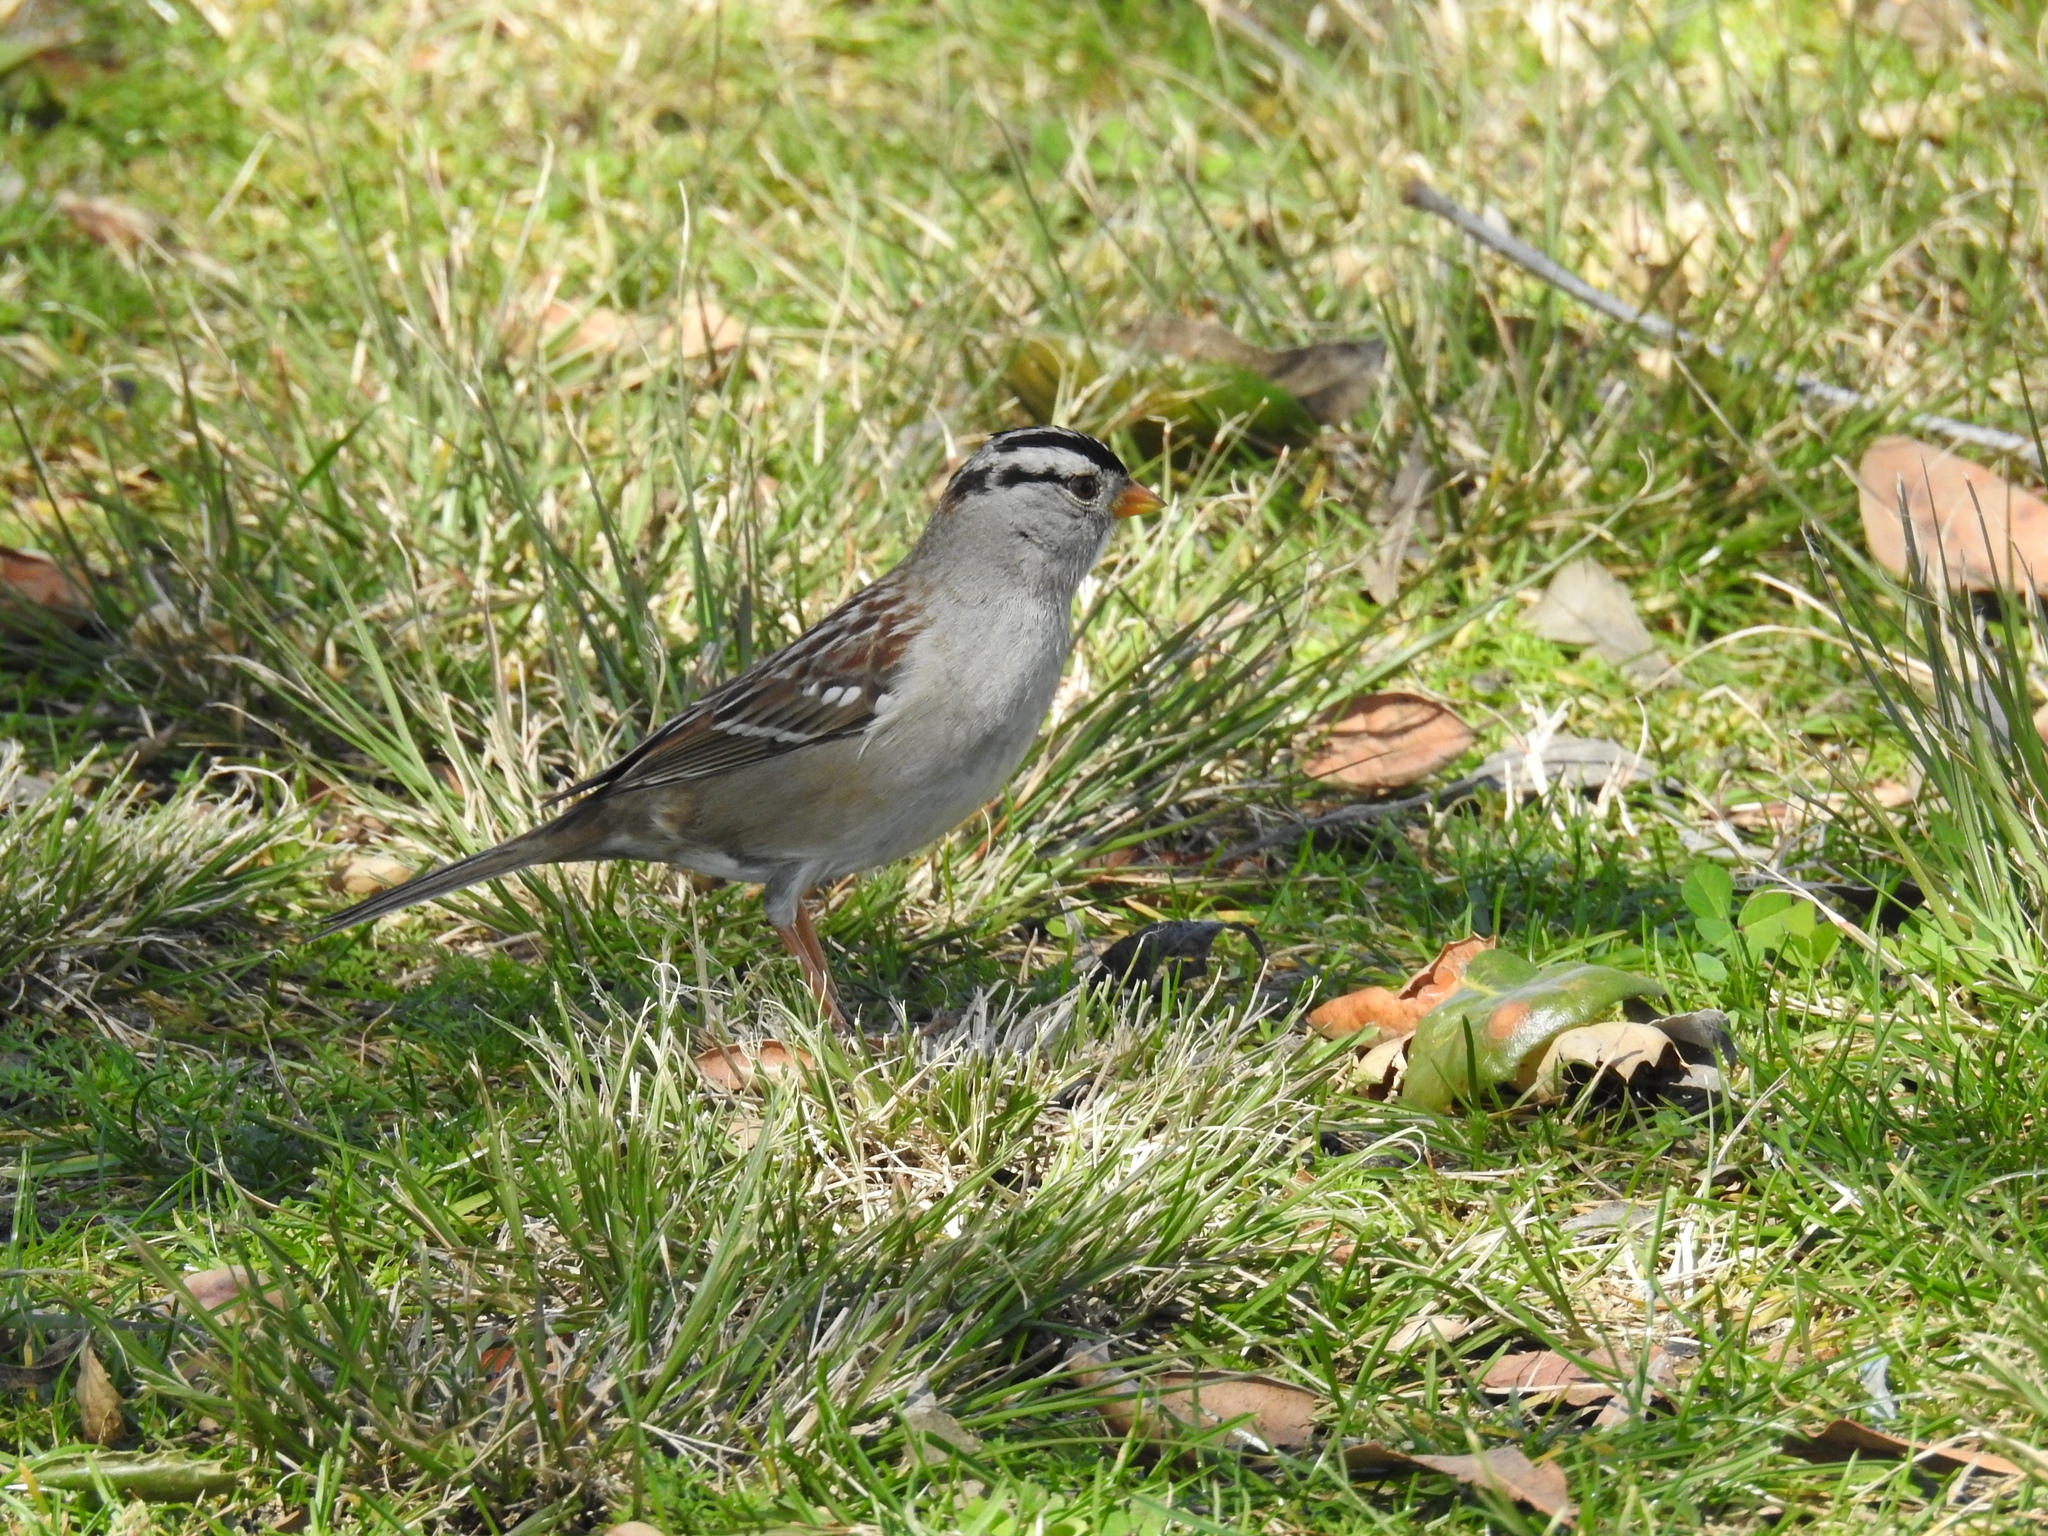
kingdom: Animalia
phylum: Chordata
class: Aves
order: Passeriformes
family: Passerellidae
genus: Zonotrichia
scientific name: Zonotrichia leucophrys
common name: White-crowned sparrow
